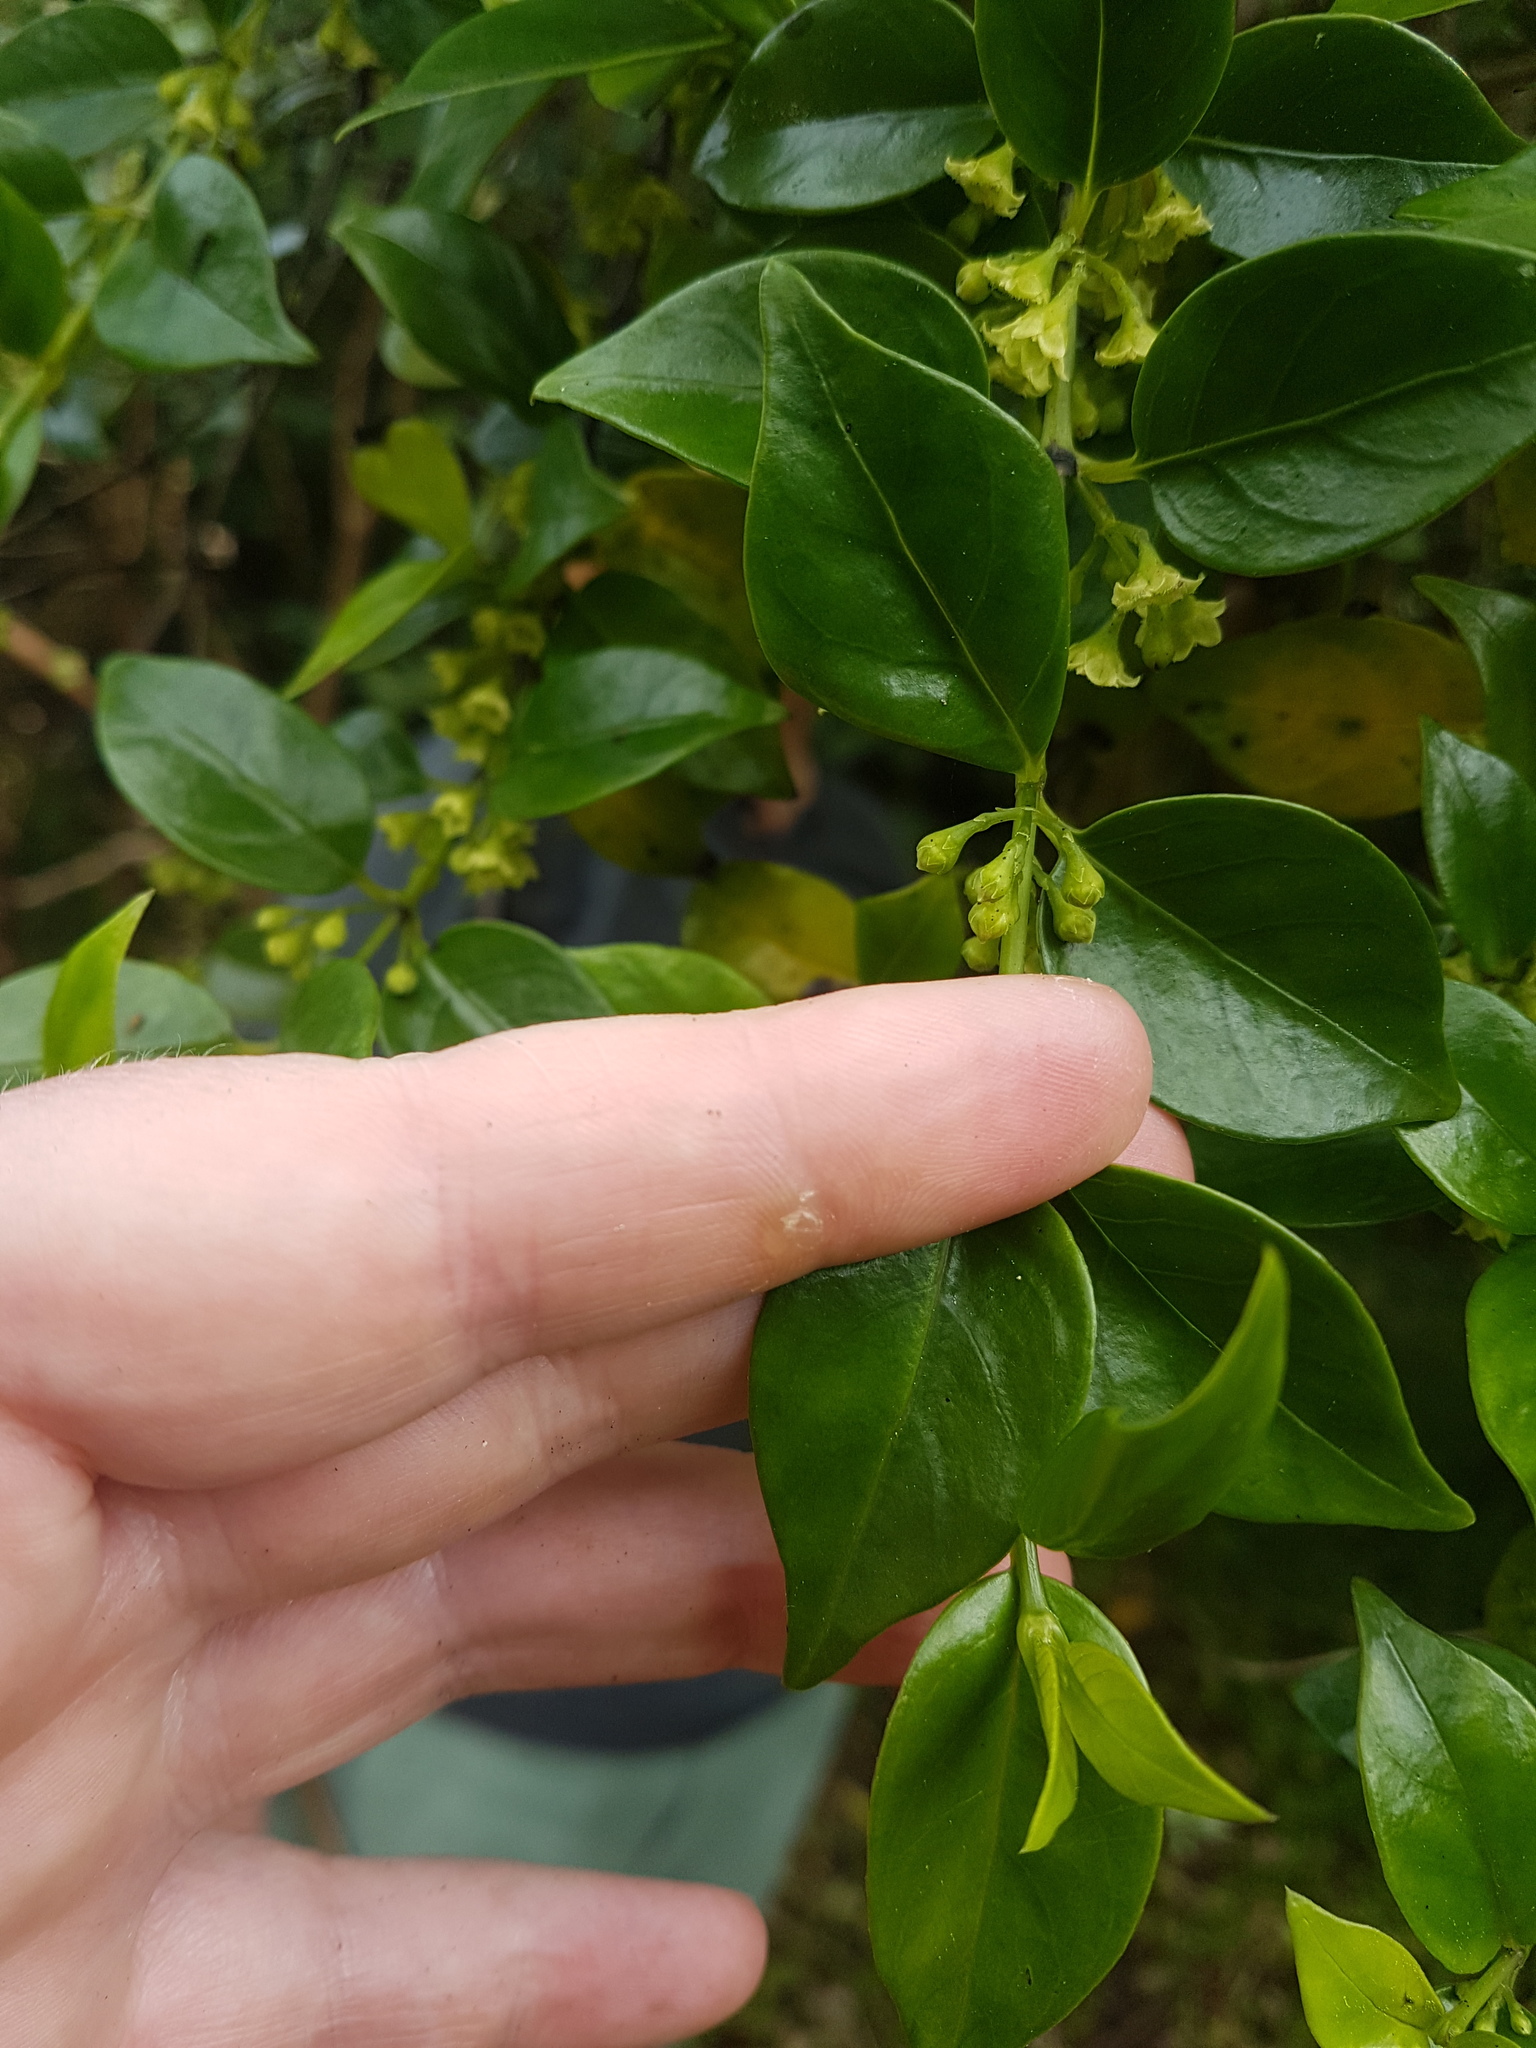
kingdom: Plantae
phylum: Tracheophyta
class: Magnoliopsida
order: Gentianales
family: Loganiaceae
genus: Geniostoma
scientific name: Geniostoma ligustrifolium
